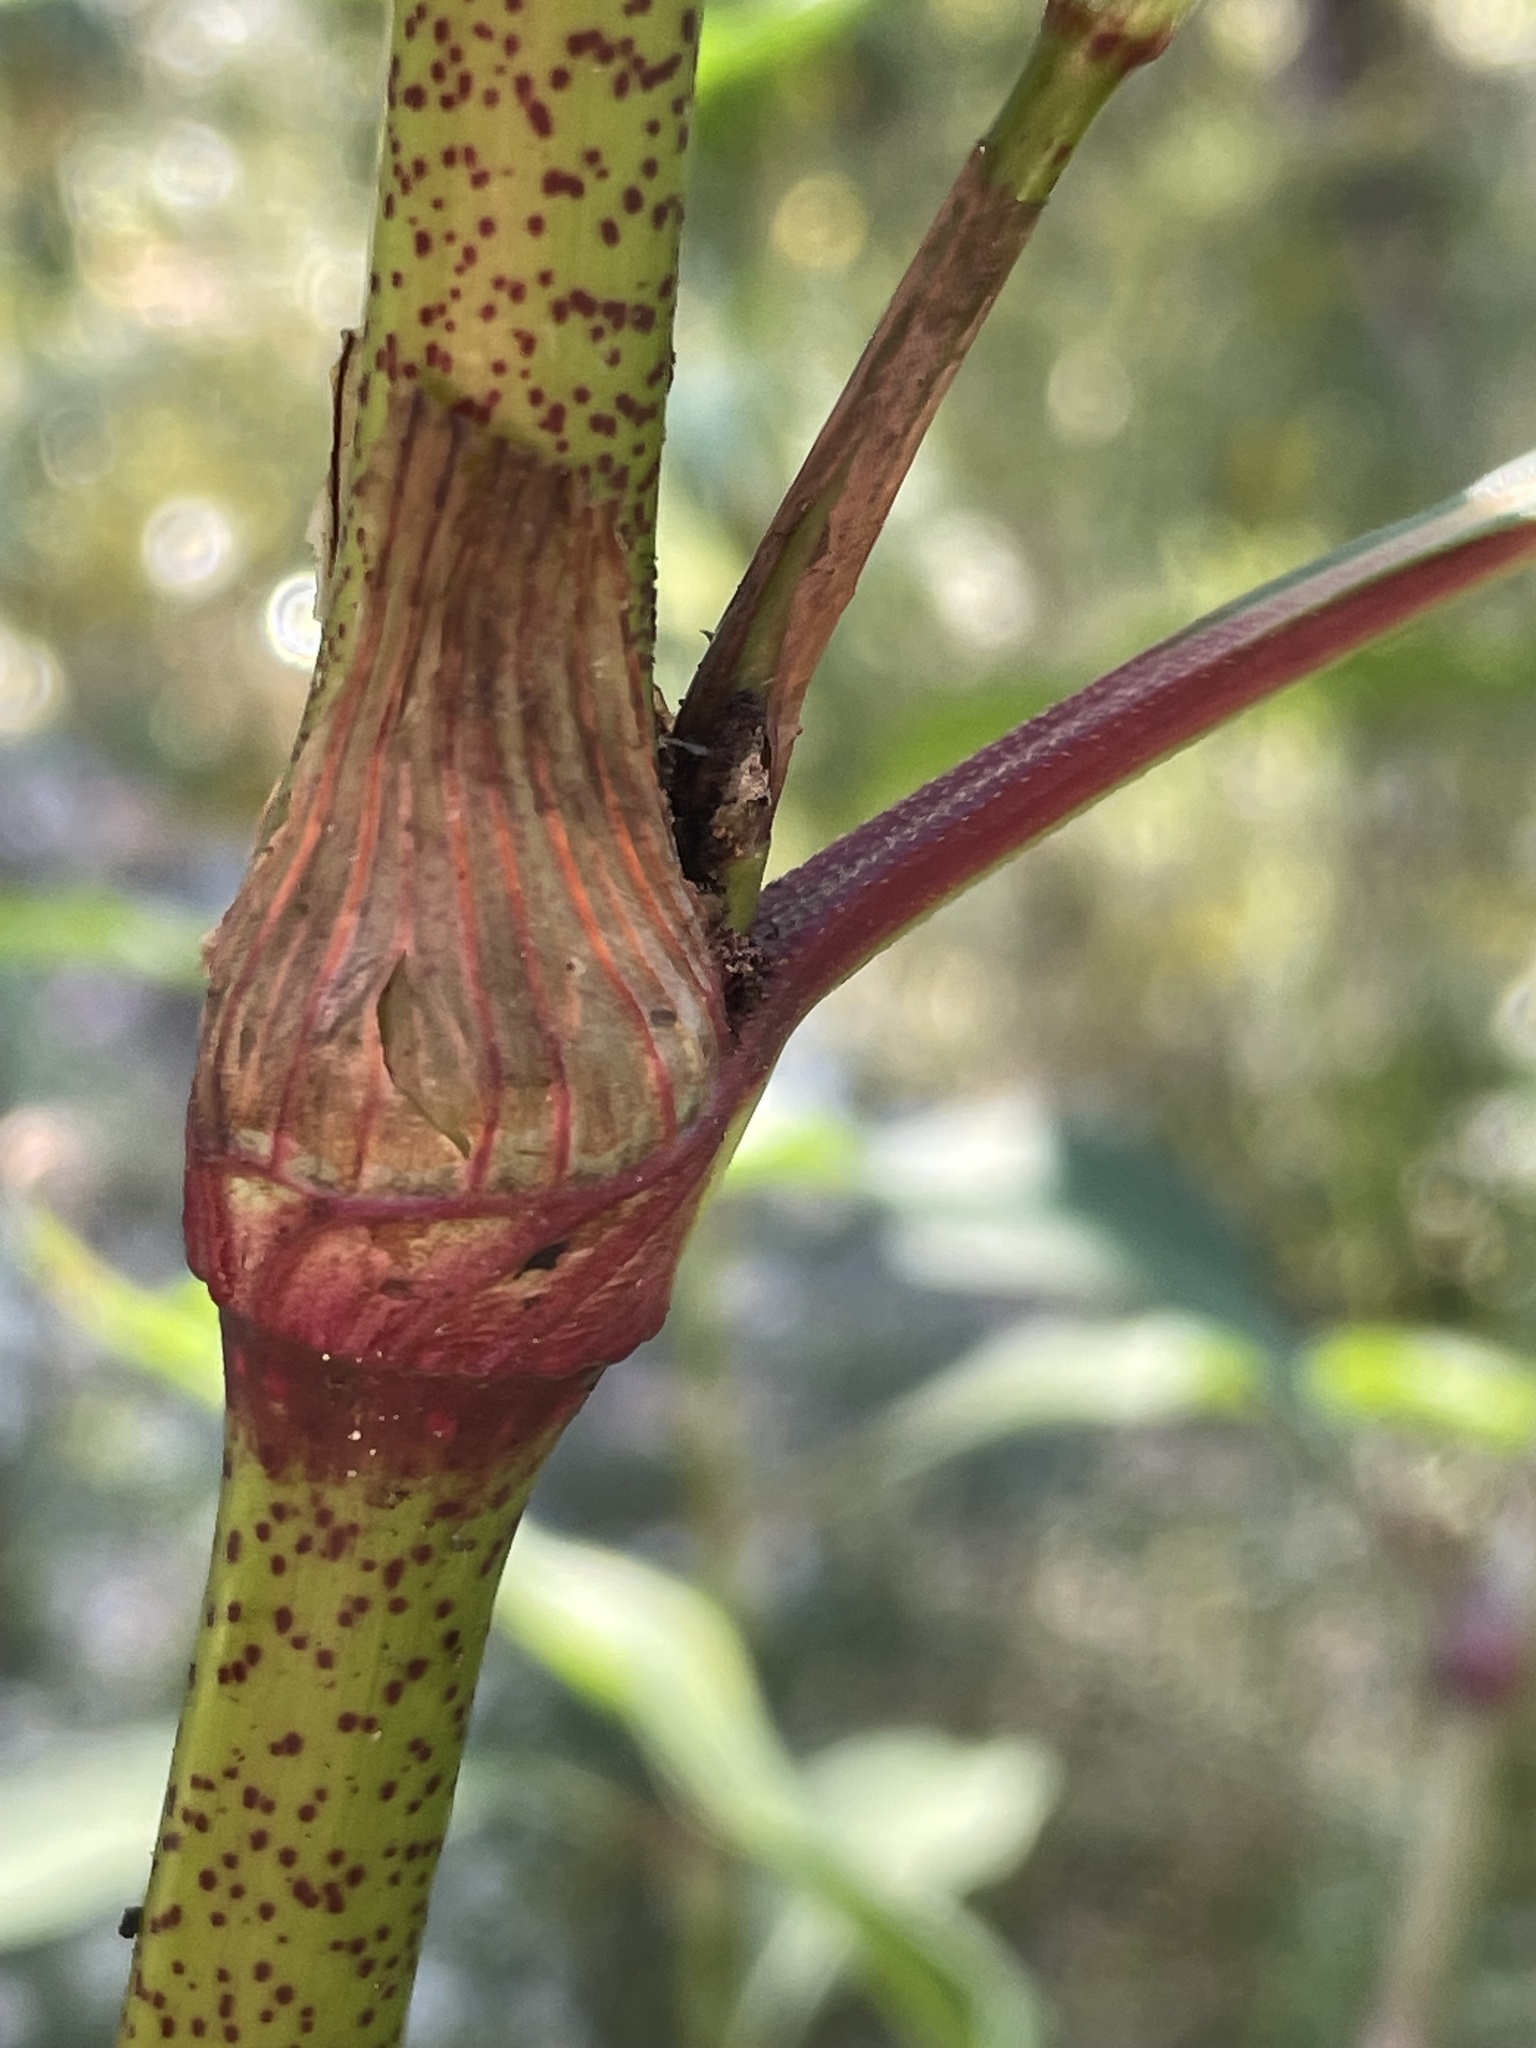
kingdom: Plantae
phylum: Tracheophyta
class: Magnoliopsida
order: Caryophyllales
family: Polygonaceae
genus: Persicaria
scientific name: Persicaria lapathifolia
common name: Curlytop knotweed
